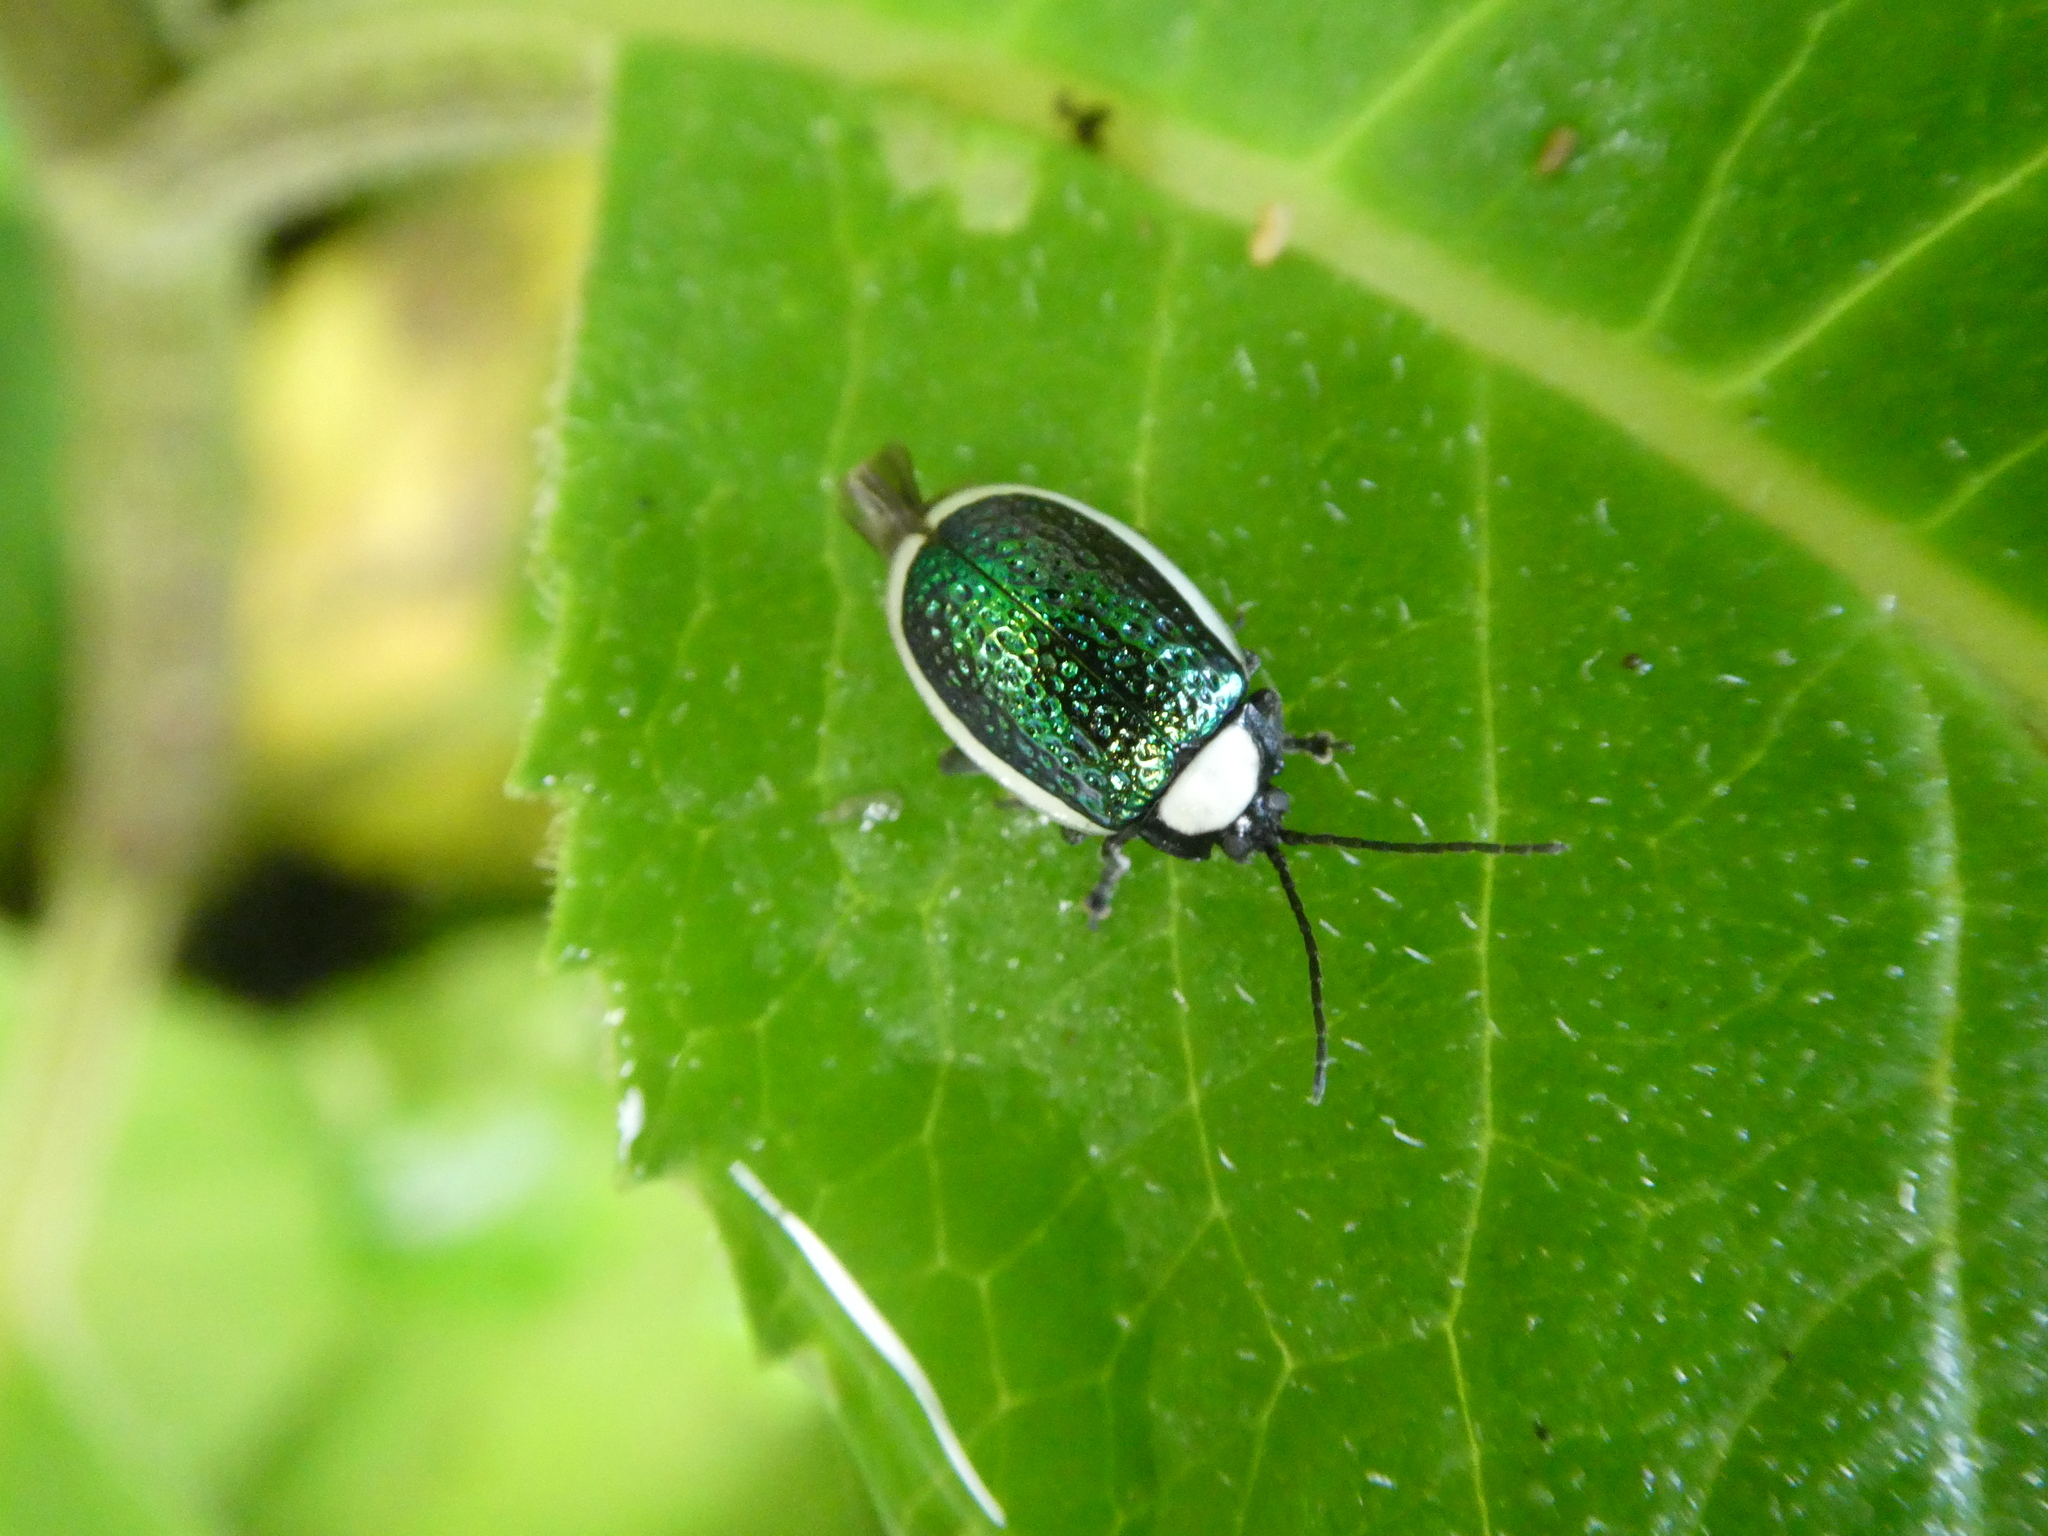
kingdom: Animalia
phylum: Arthropoda
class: Insecta
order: Coleoptera
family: Chrysomelidae
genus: Asphaera
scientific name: Asphaera
